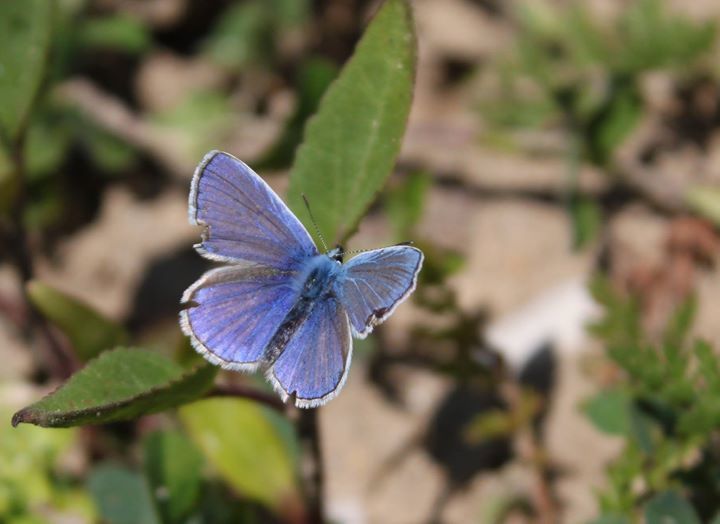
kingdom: Animalia
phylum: Arthropoda
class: Insecta
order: Lepidoptera
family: Lycaenidae
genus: Polyommatus
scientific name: Polyommatus icarus
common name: Common blue
